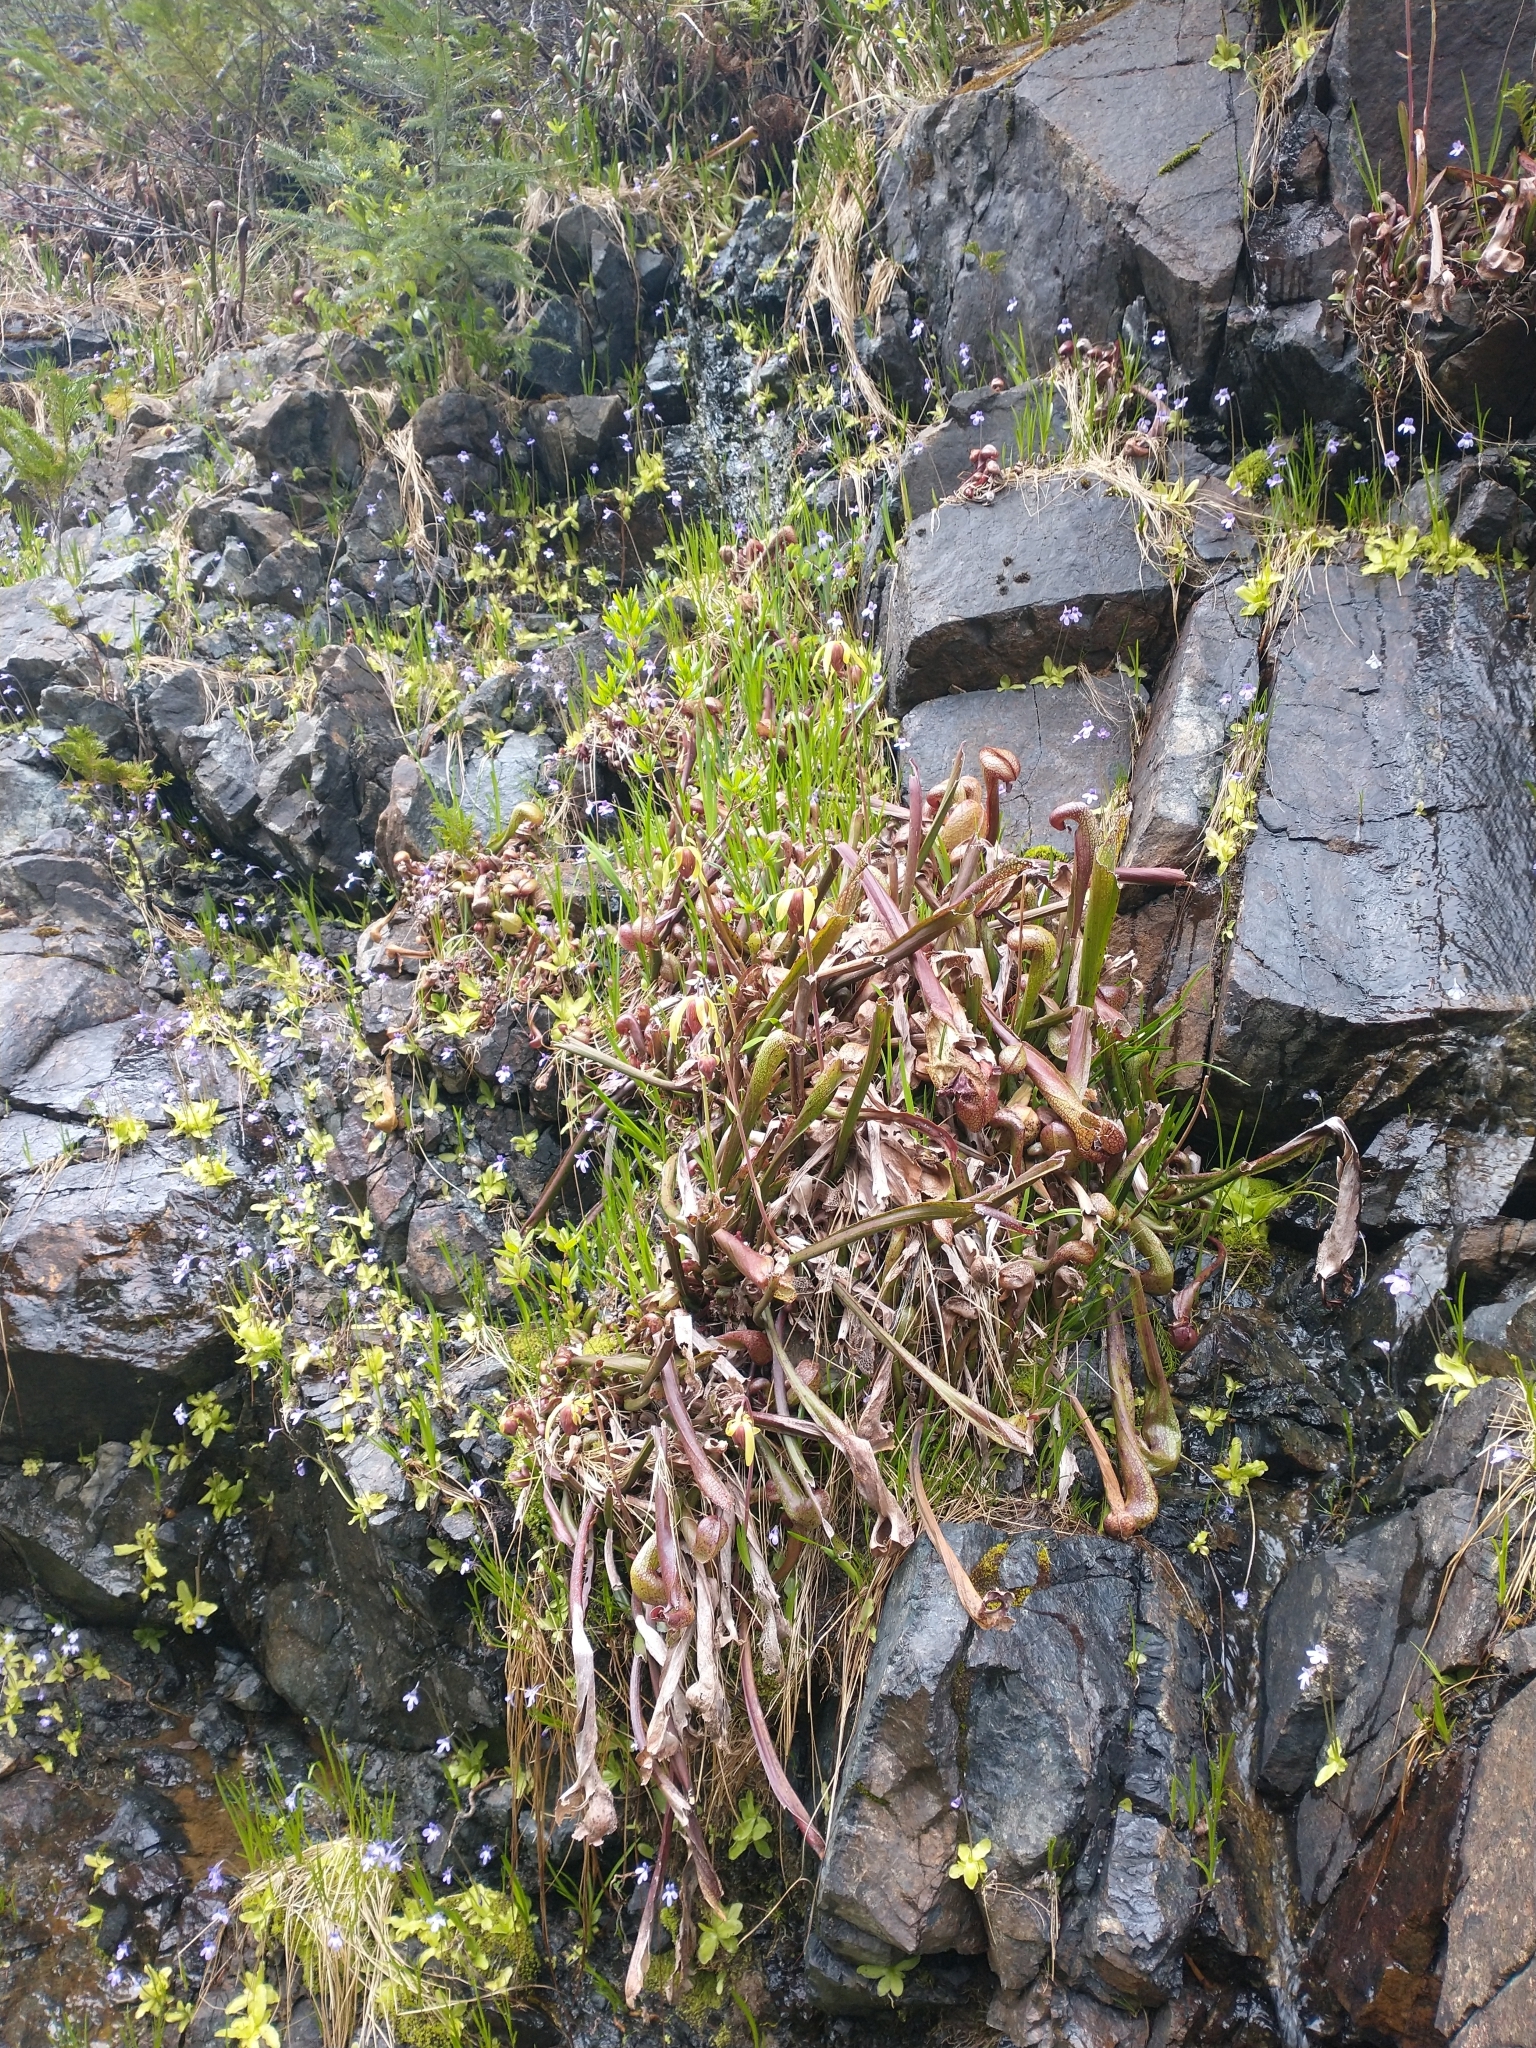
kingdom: Plantae
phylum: Tracheophyta
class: Magnoliopsida
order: Ericales
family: Sarraceniaceae
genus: Darlingtonia
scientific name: Darlingtonia californica
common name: California pitcher plant
